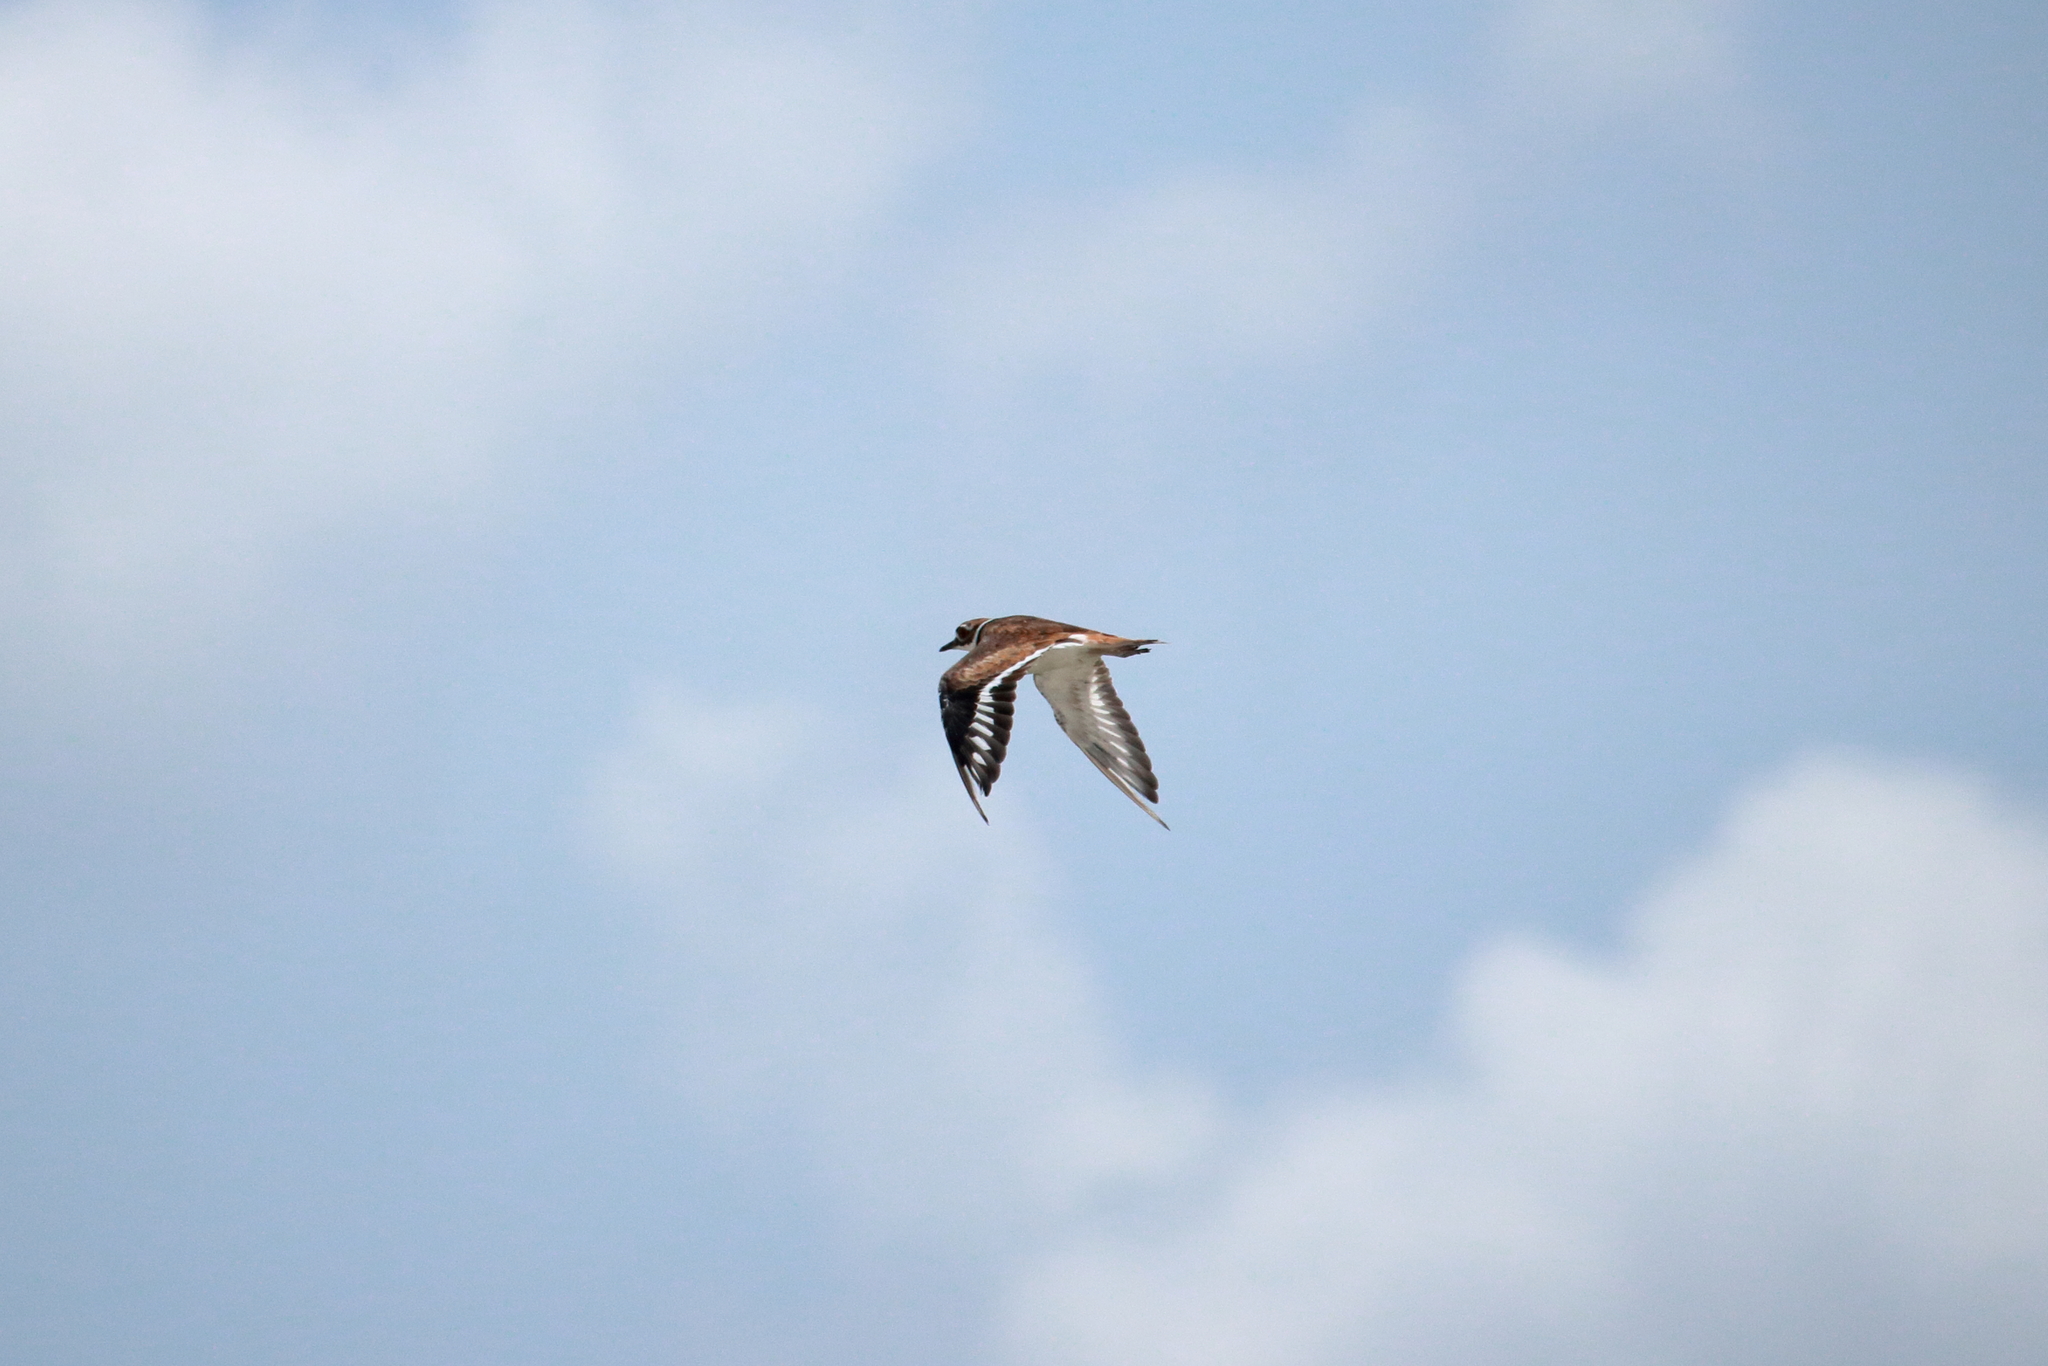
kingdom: Animalia
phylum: Chordata
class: Aves
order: Charadriiformes
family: Charadriidae
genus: Charadrius
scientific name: Charadrius vociferus
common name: Killdeer
